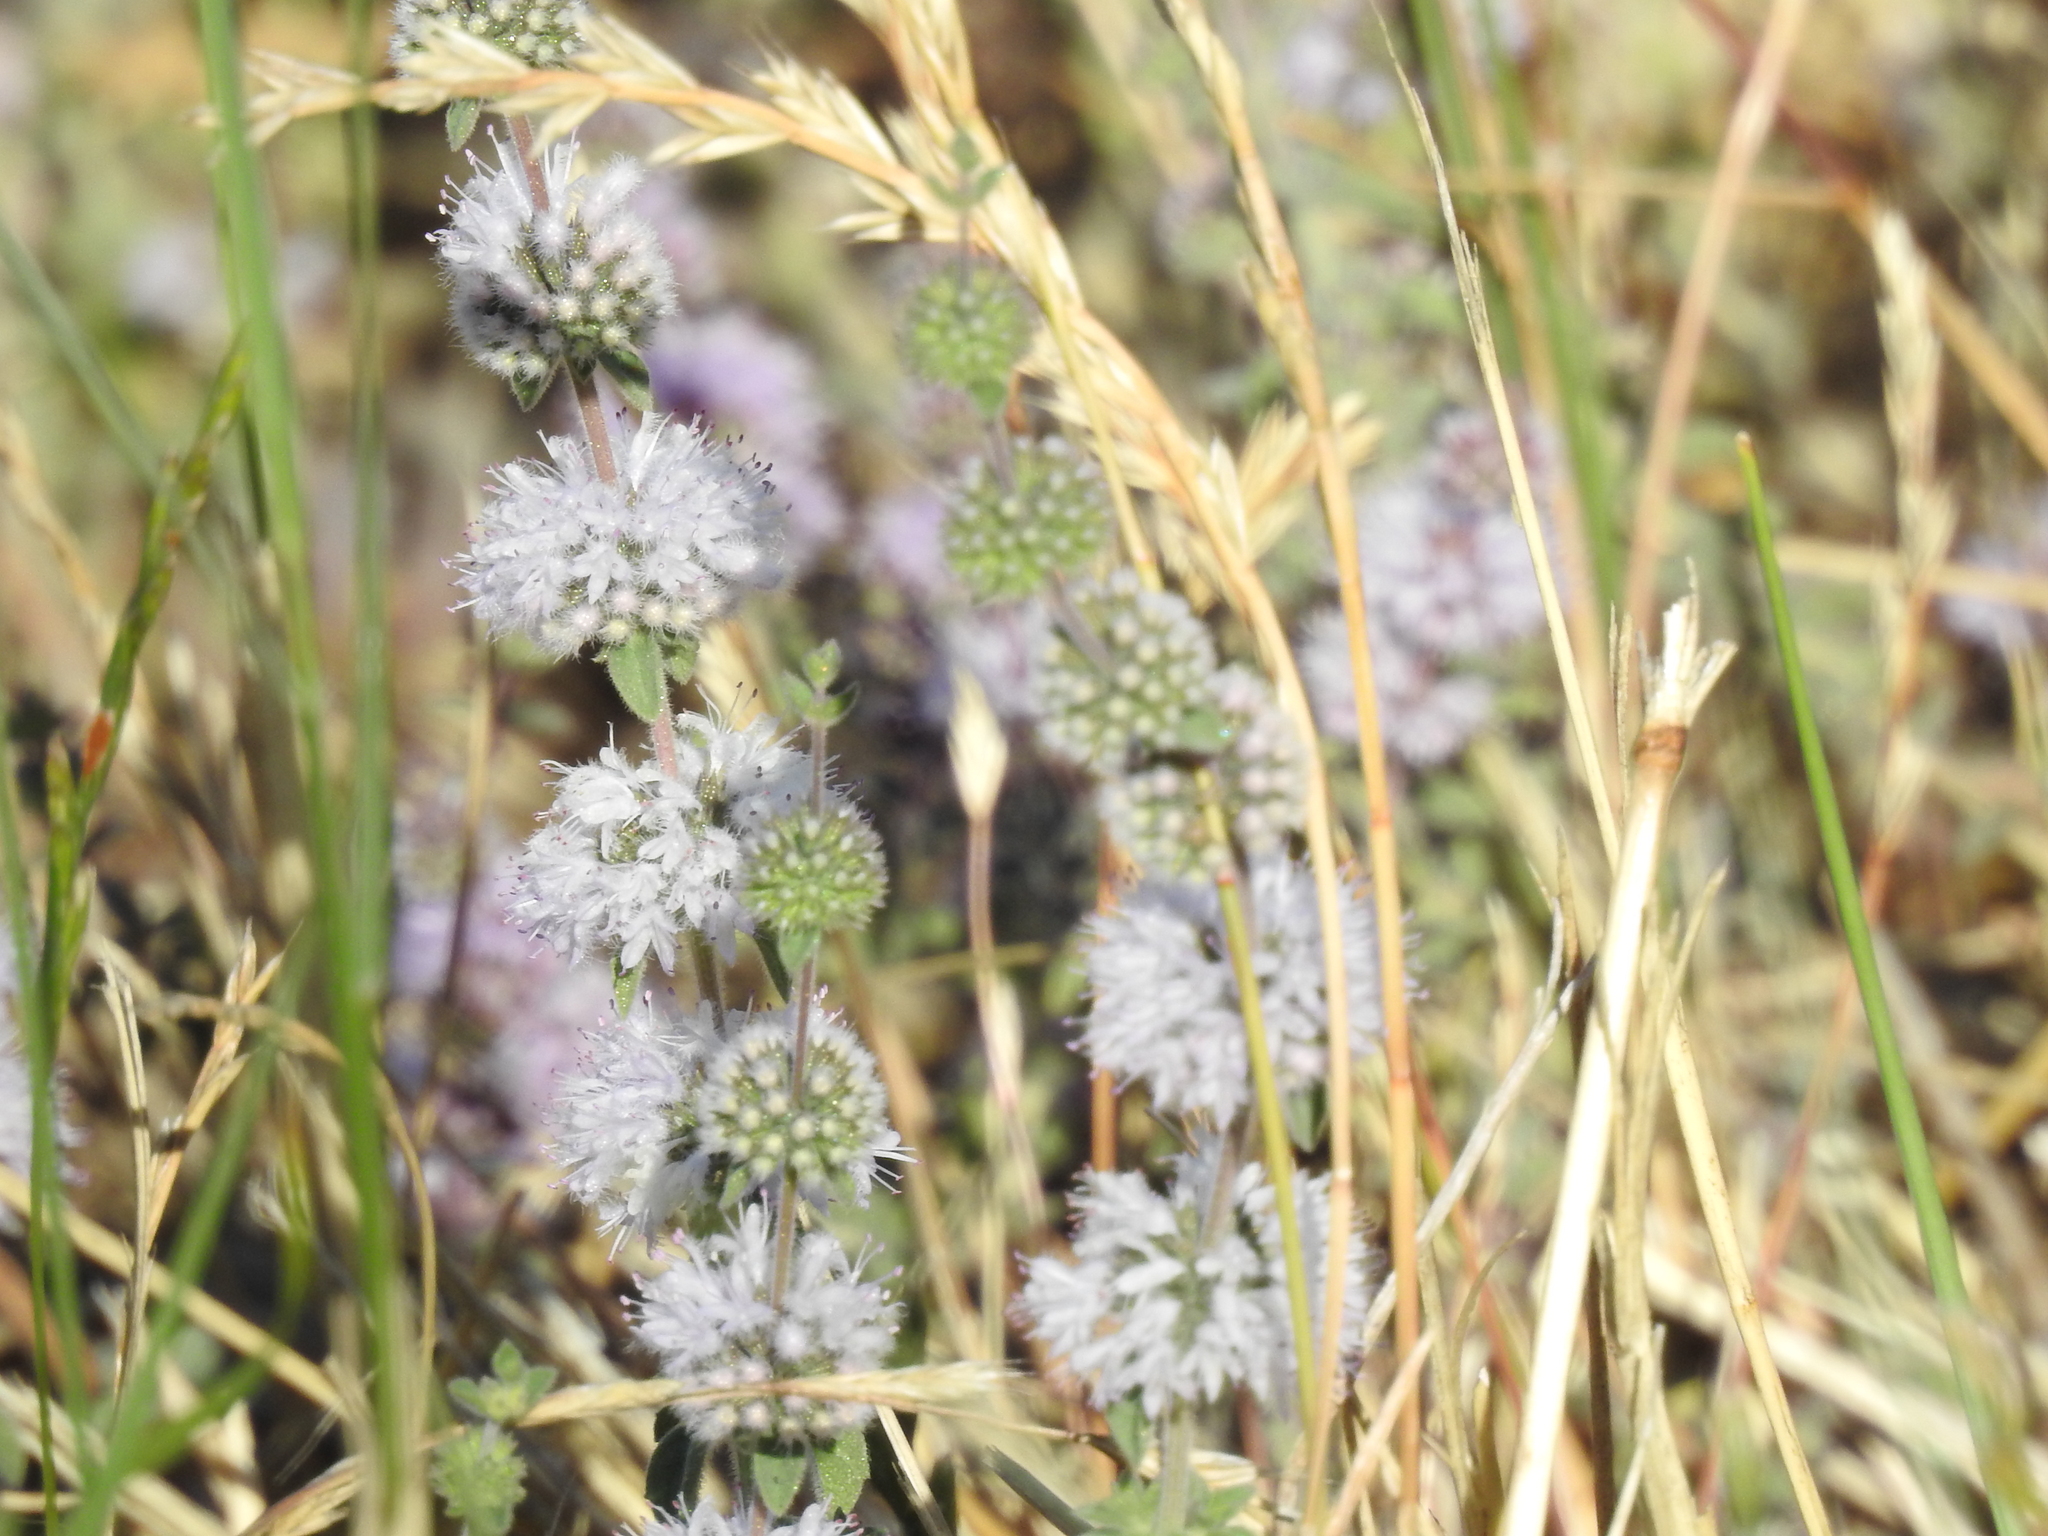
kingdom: Plantae
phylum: Tracheophyta
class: Magnoliopsida
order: Lamiales
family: Lamiaceae
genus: Mentha
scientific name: Mentha pulegium
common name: Pennyroyal
